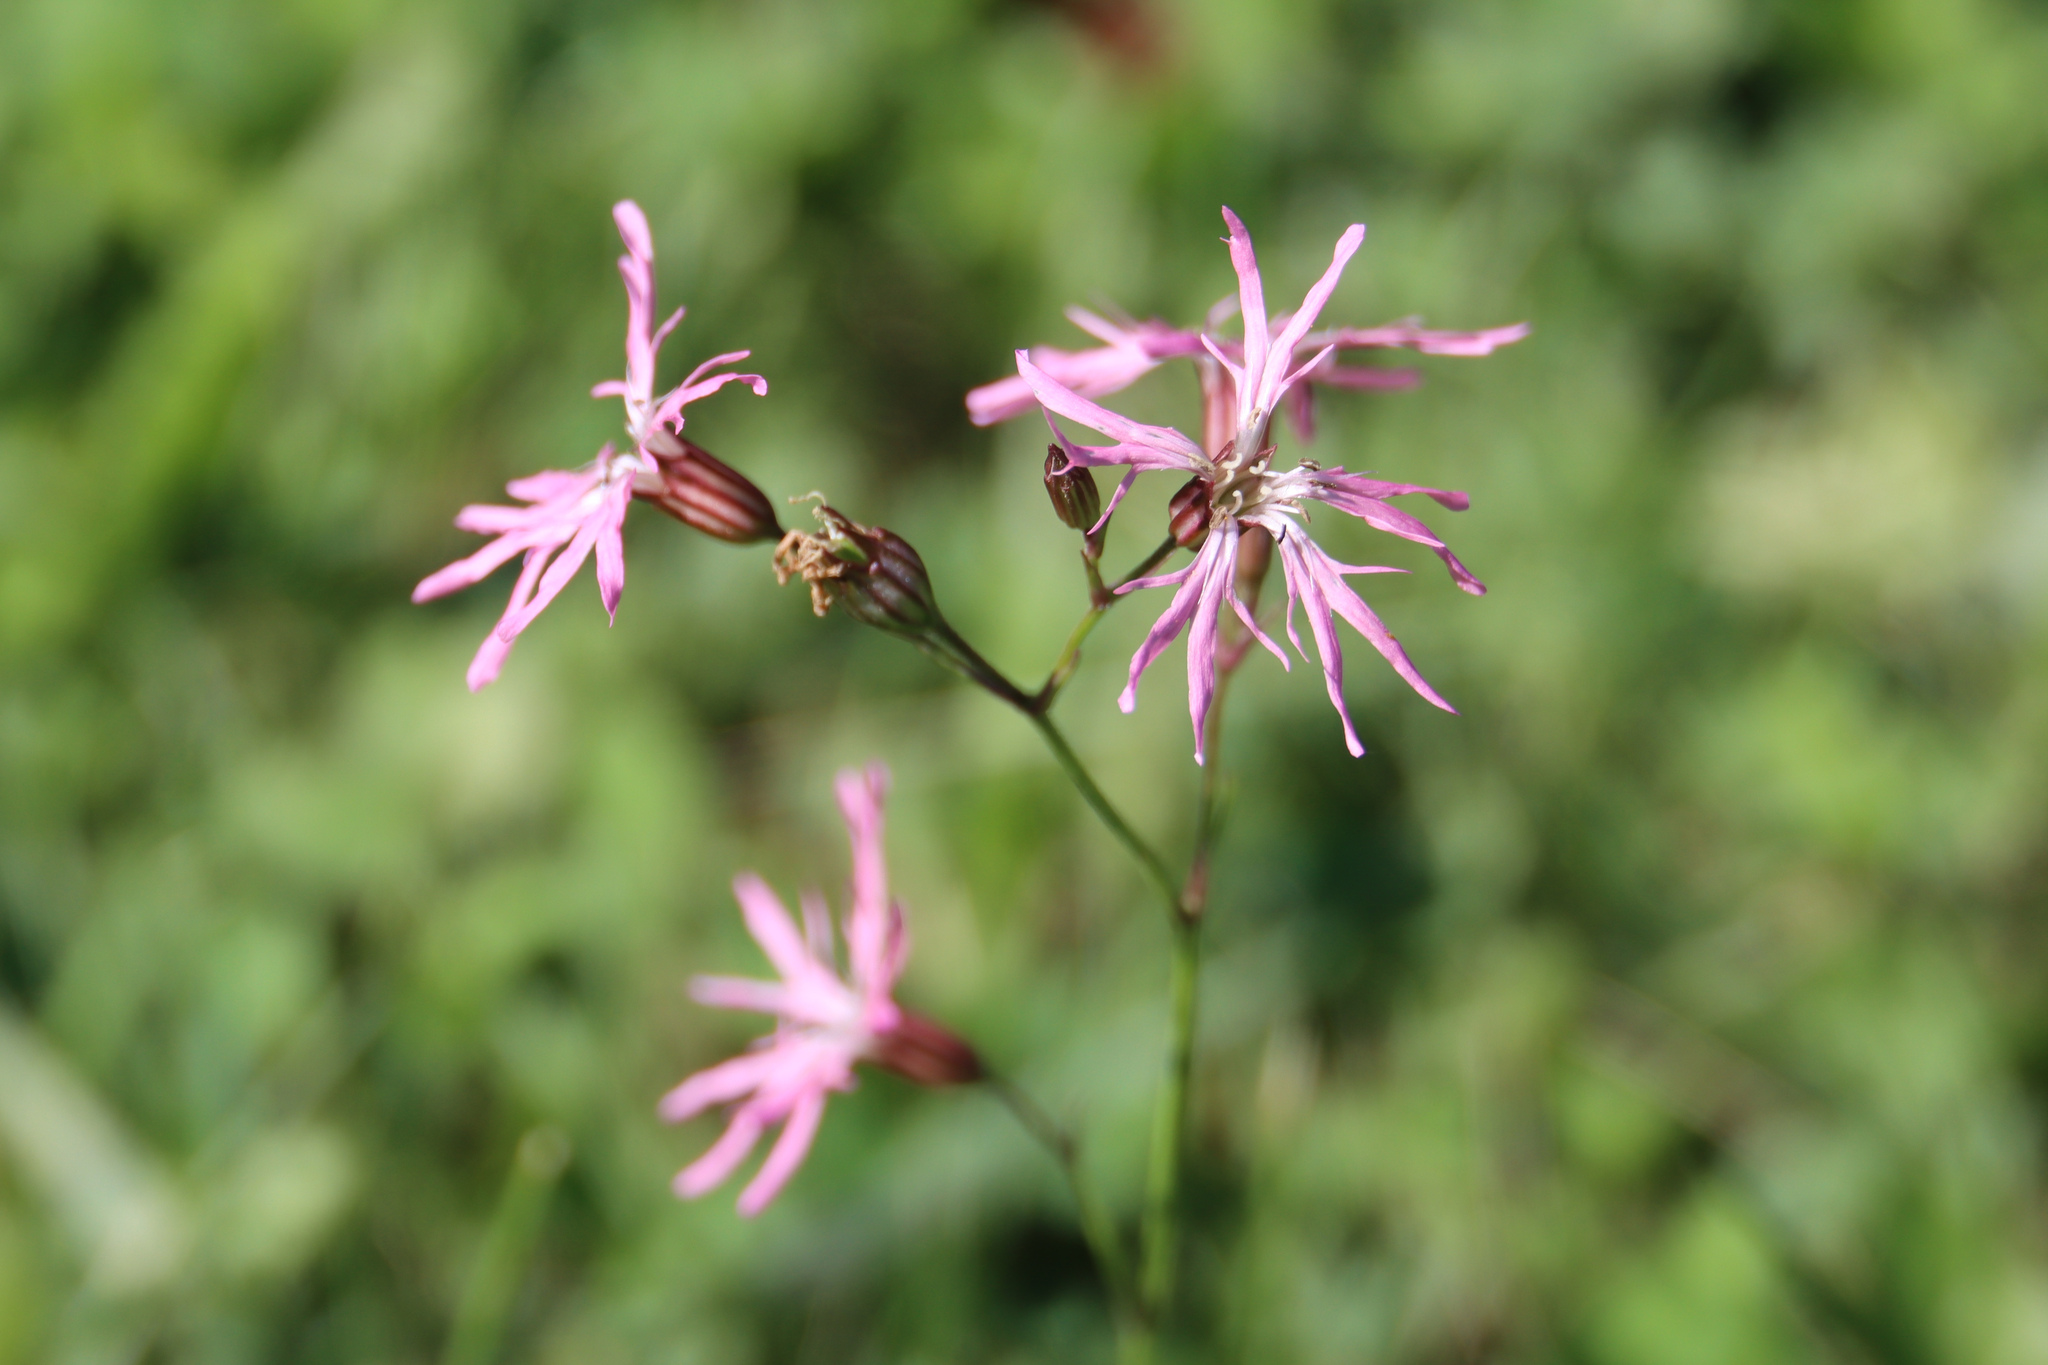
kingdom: Plantae
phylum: Tracheophyta
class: Magnoliopsida
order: Caryophyllales
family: Caryophyllaceae
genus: Silene
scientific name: Silene flos-cuculi
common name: Ragged-robin
